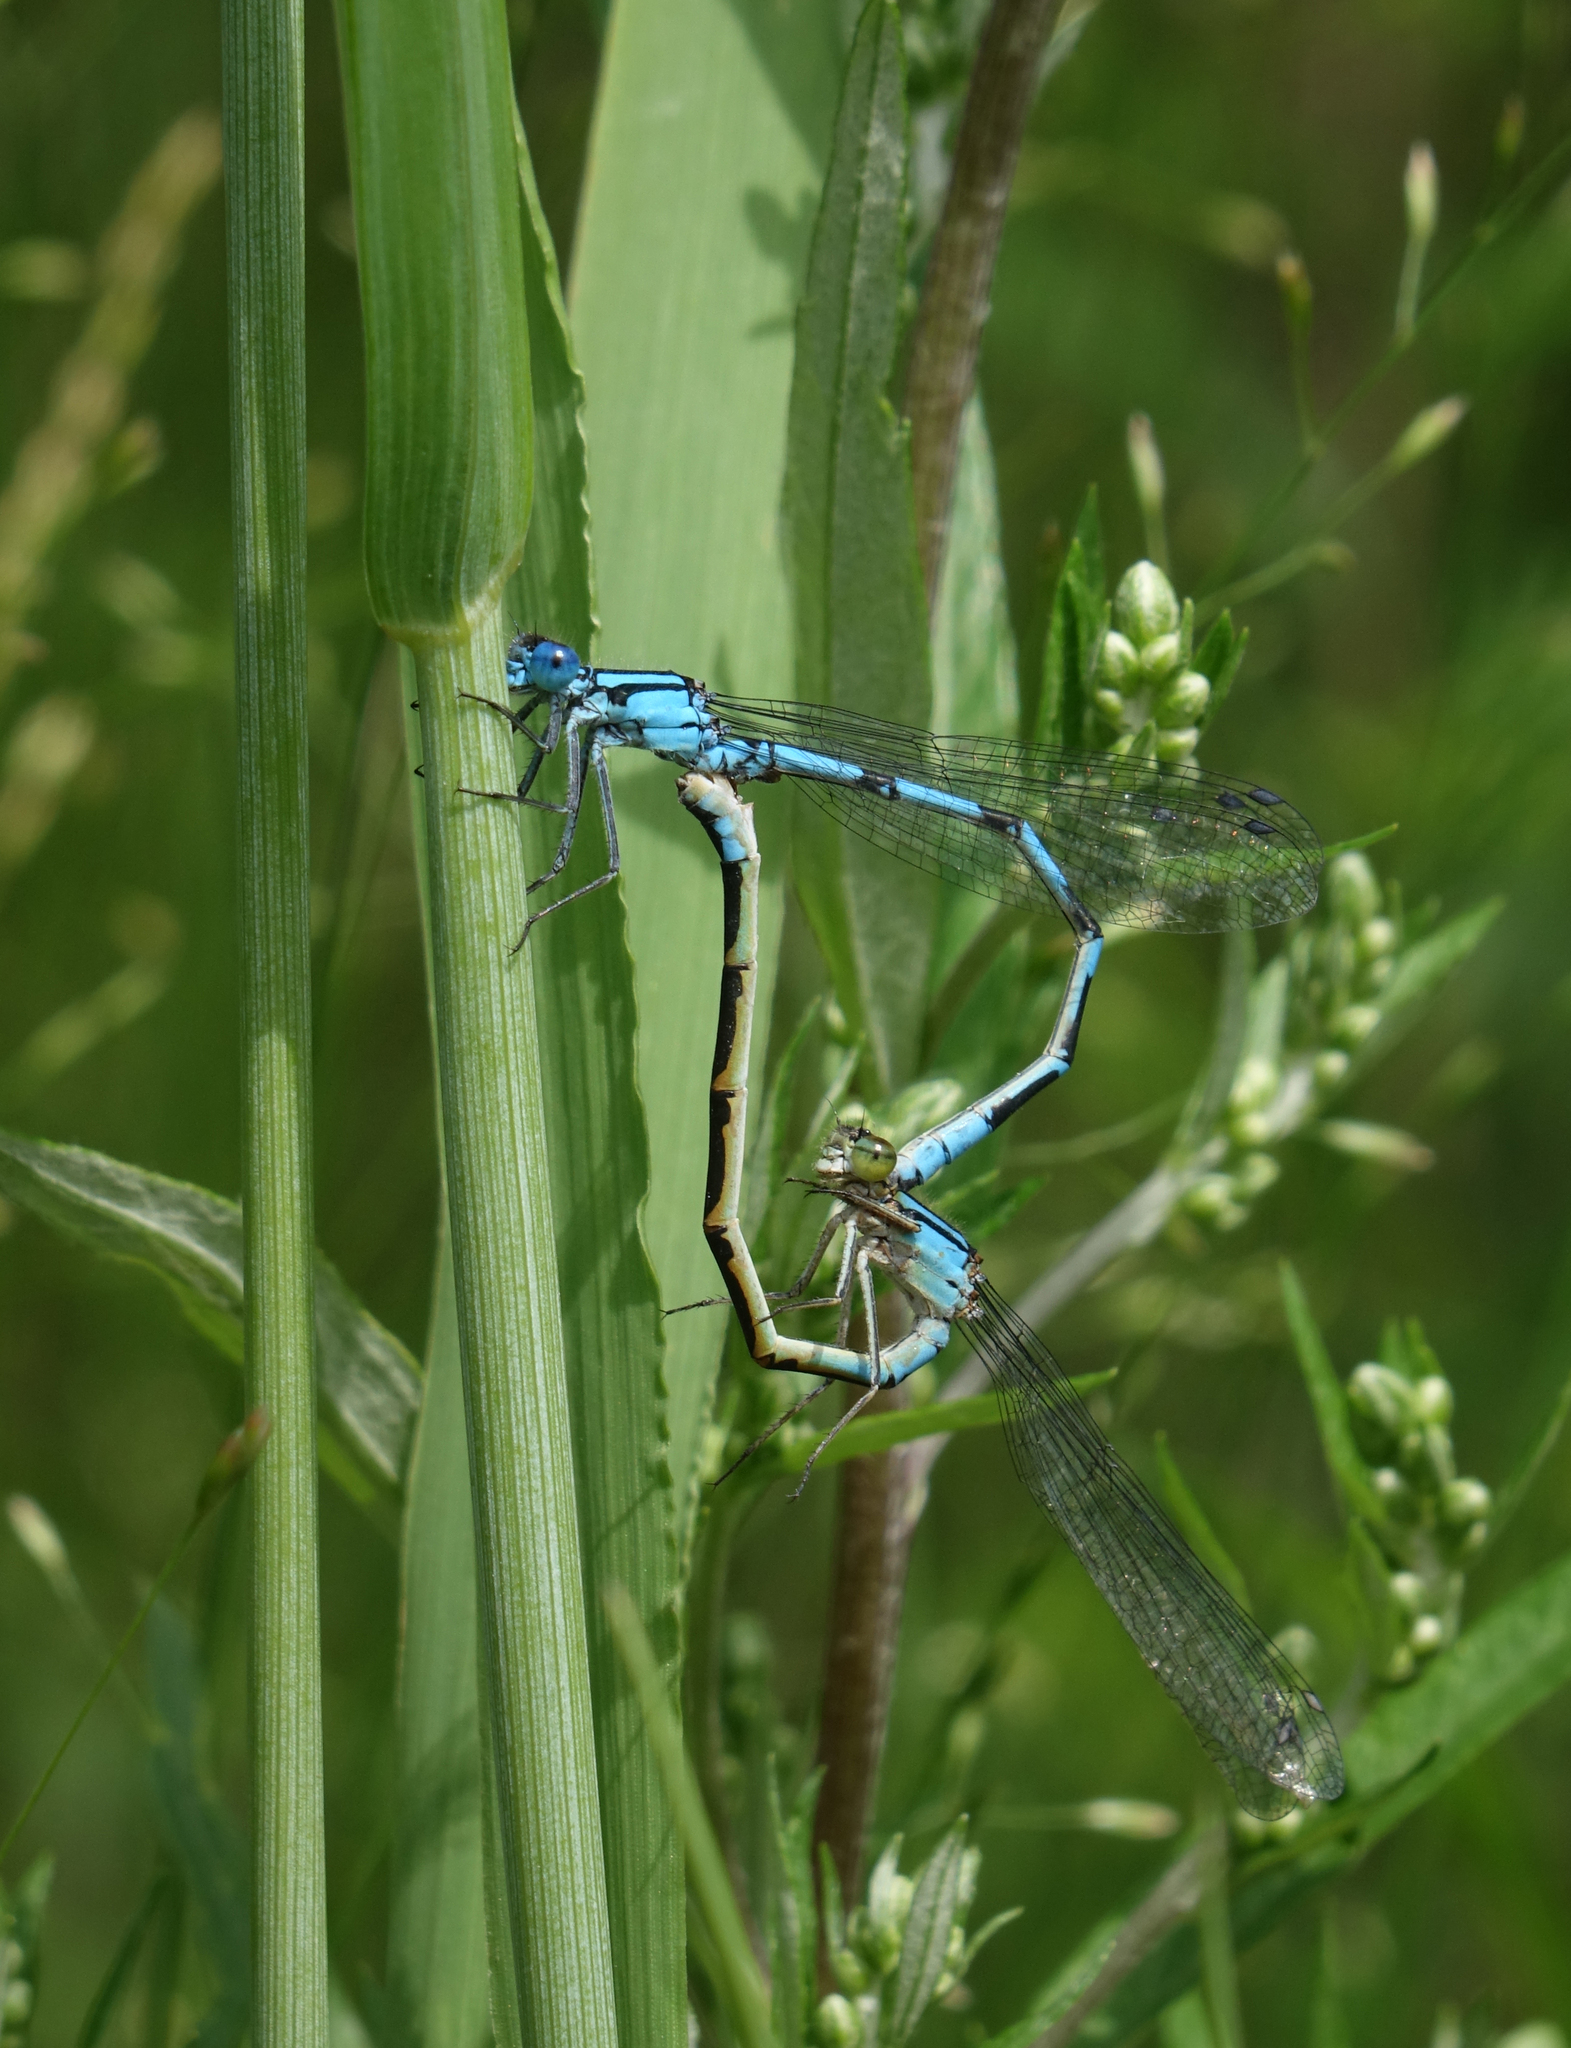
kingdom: Animalia
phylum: Arthropoda
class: Insecta
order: Odonata
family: Coenagrionidae
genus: Enallagma
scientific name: Enallagma cyathigerum
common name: Common blue damselfly
